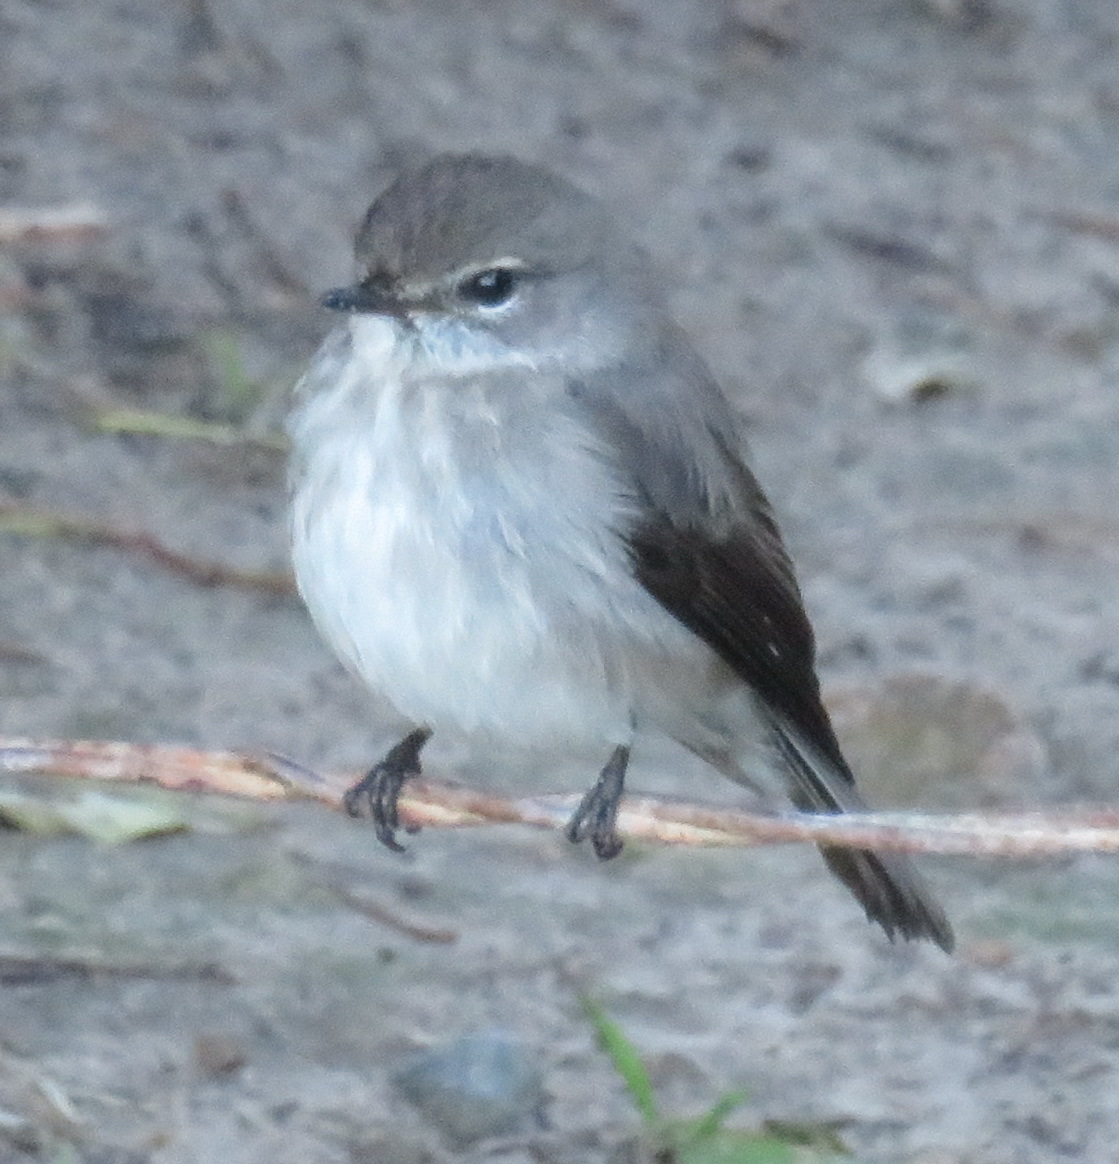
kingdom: Animalia
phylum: Chordata
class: Aves
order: Passeriformes
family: Muscicapidae
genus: Muscicapa
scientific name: Muscicapa adusta
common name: African dusky flycatcher
